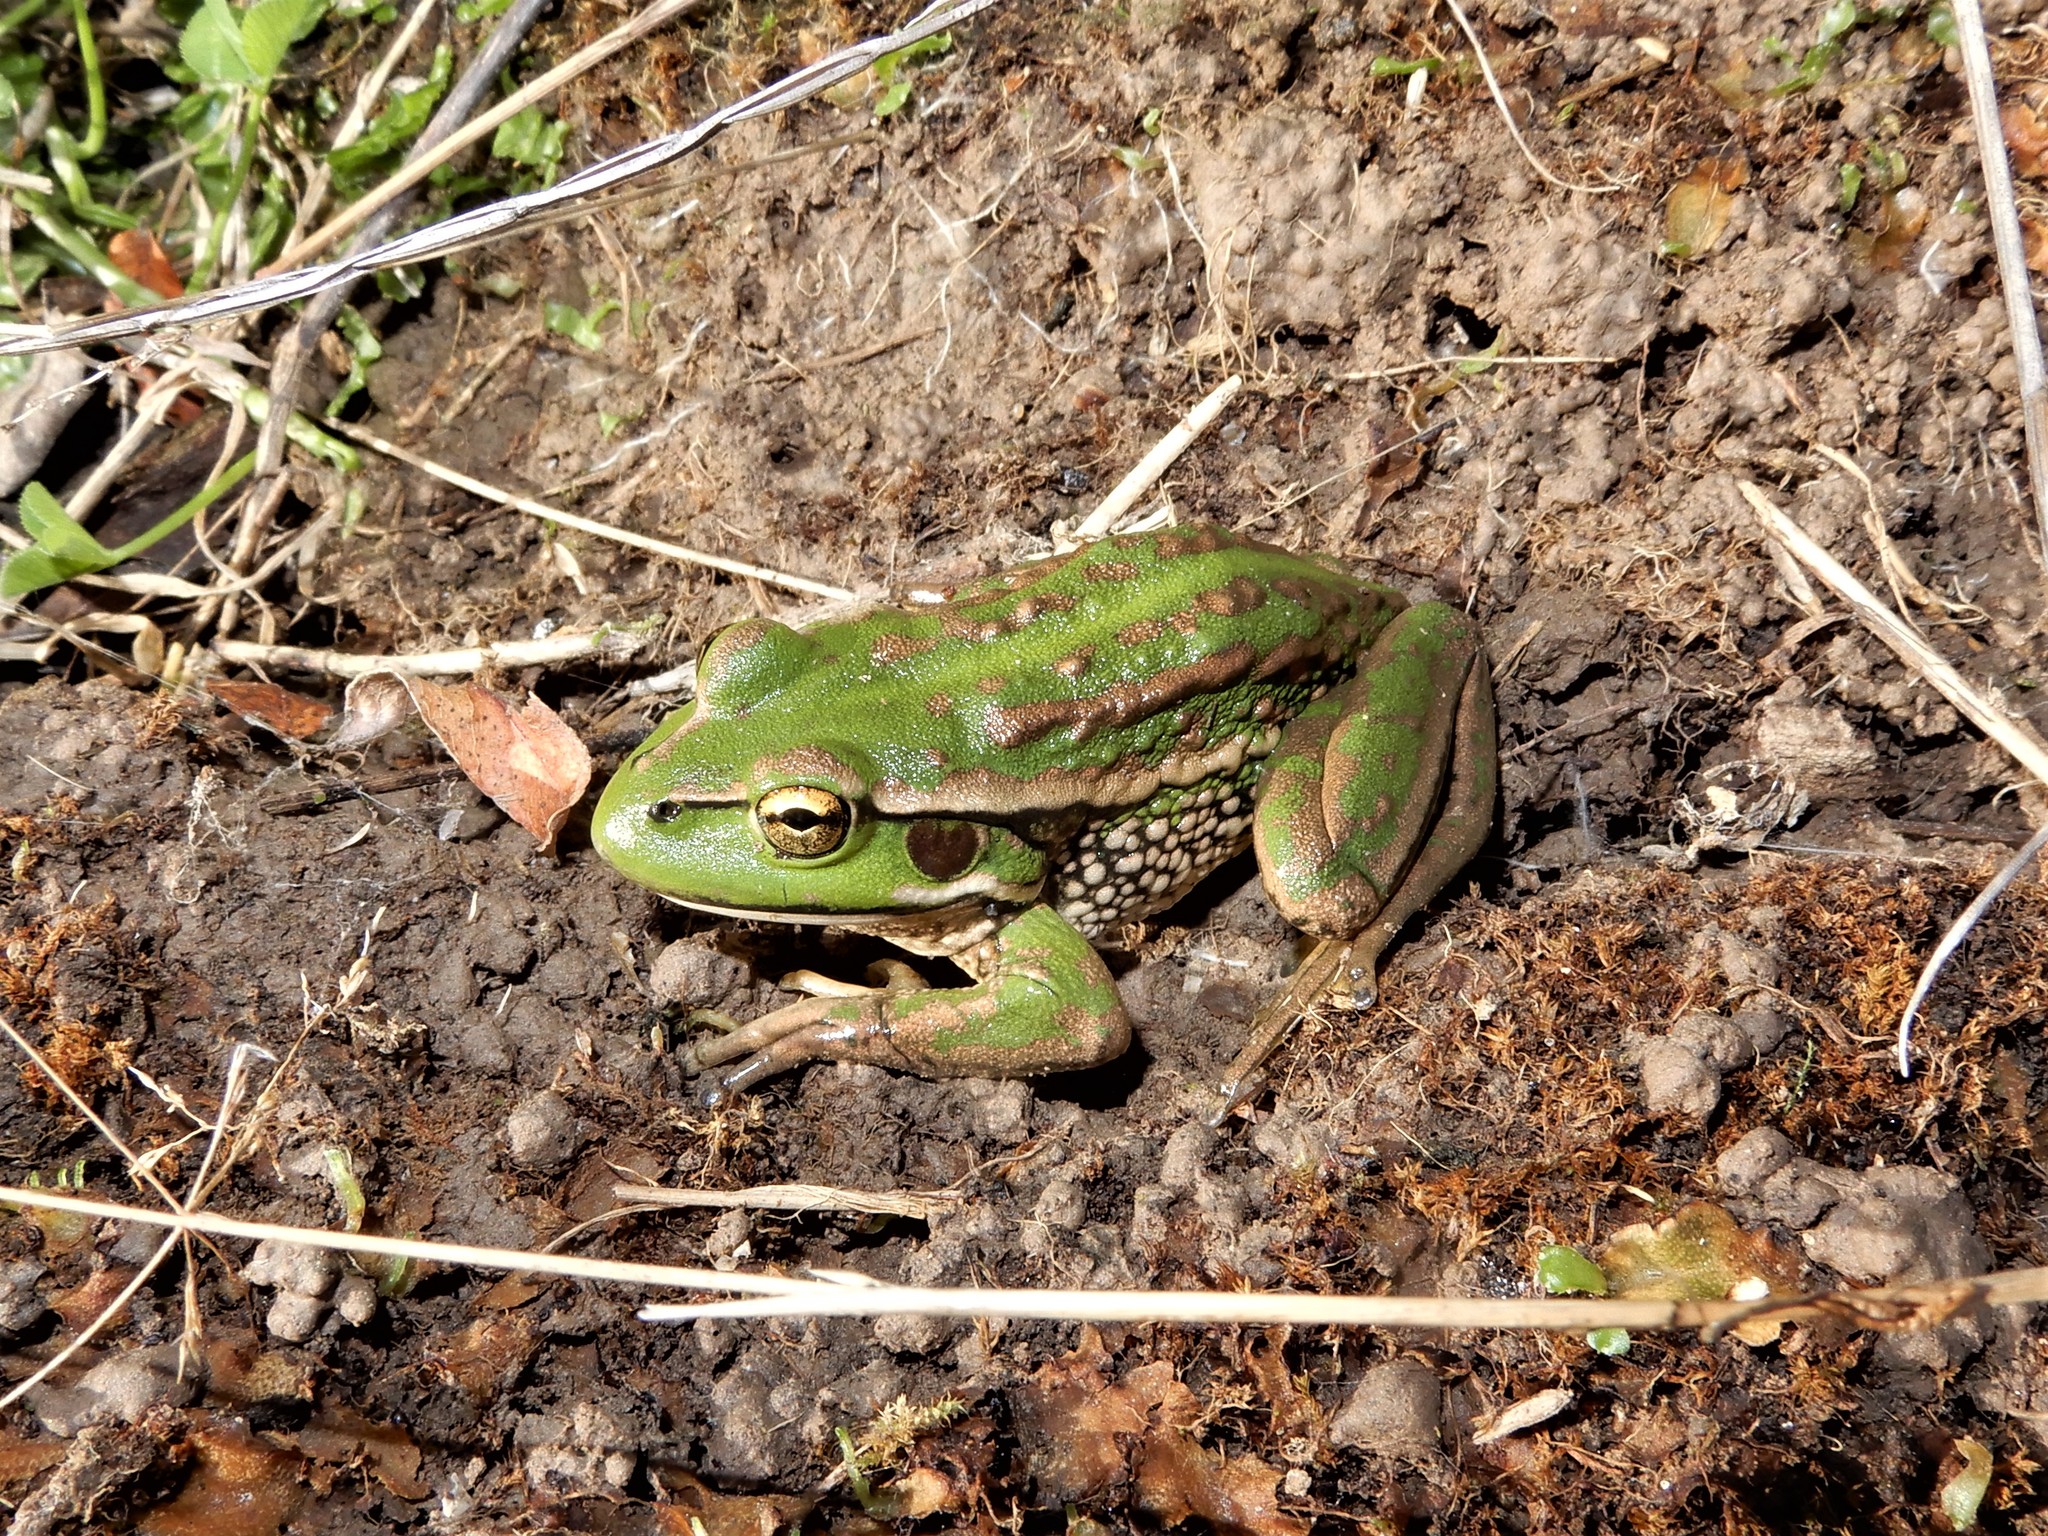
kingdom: Animalia
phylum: Chordata
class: Amphibia
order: Anura
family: Pelodryadidae
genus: Ranoidea
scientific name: Ranoidea raniformis
